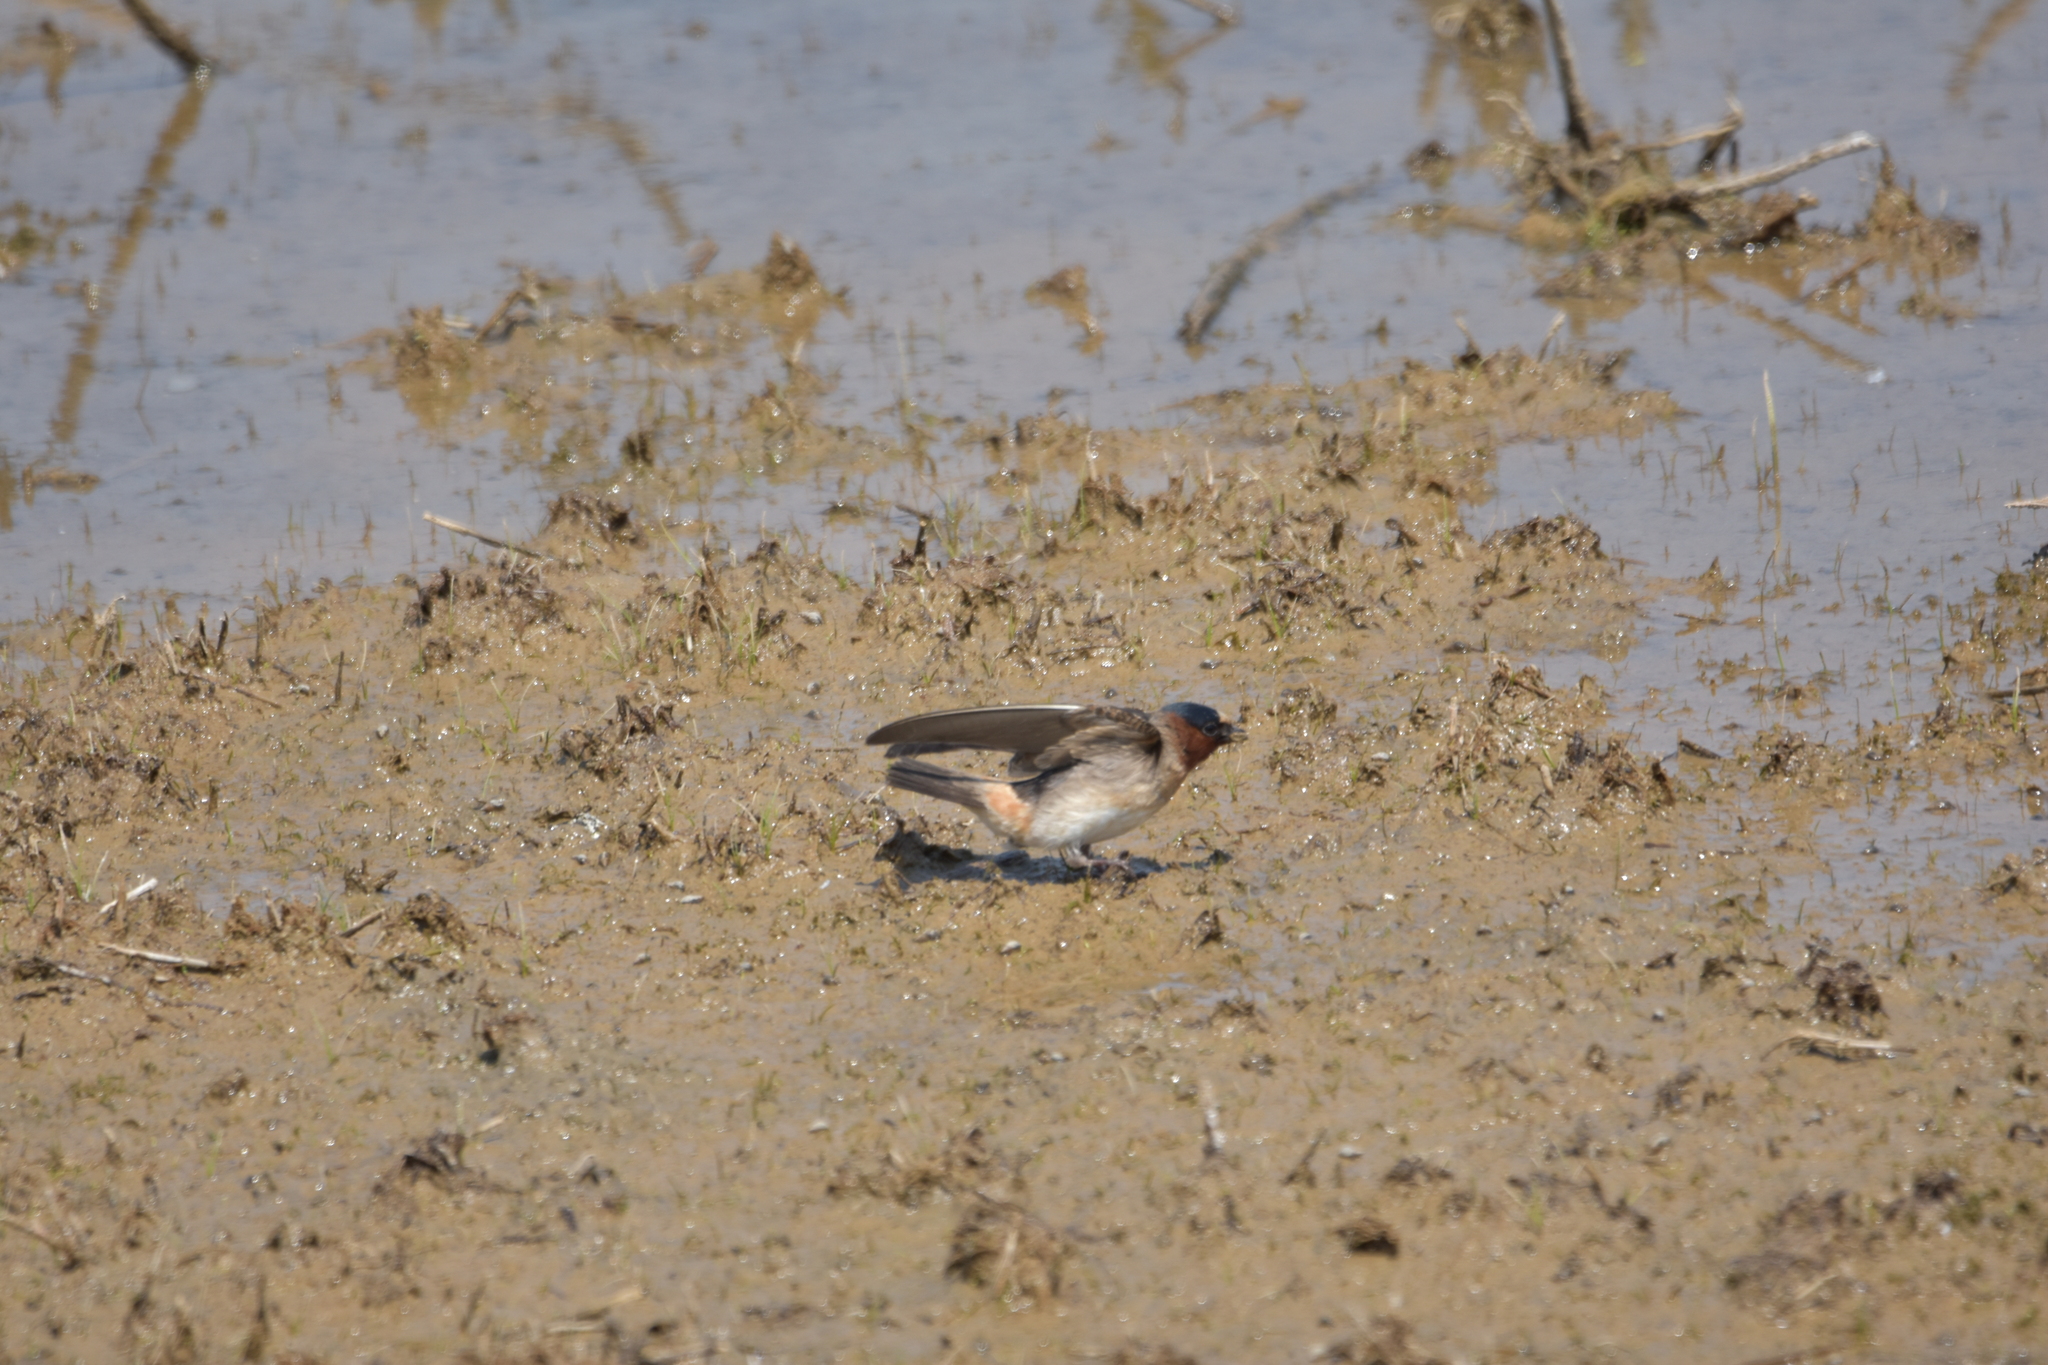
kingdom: Animalia
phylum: Chordata
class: Aves
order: Passeriformes
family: Hirundinidae
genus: Petrochelidon
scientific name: Petrochelidon pyrrhonota
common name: American cliff swallow
